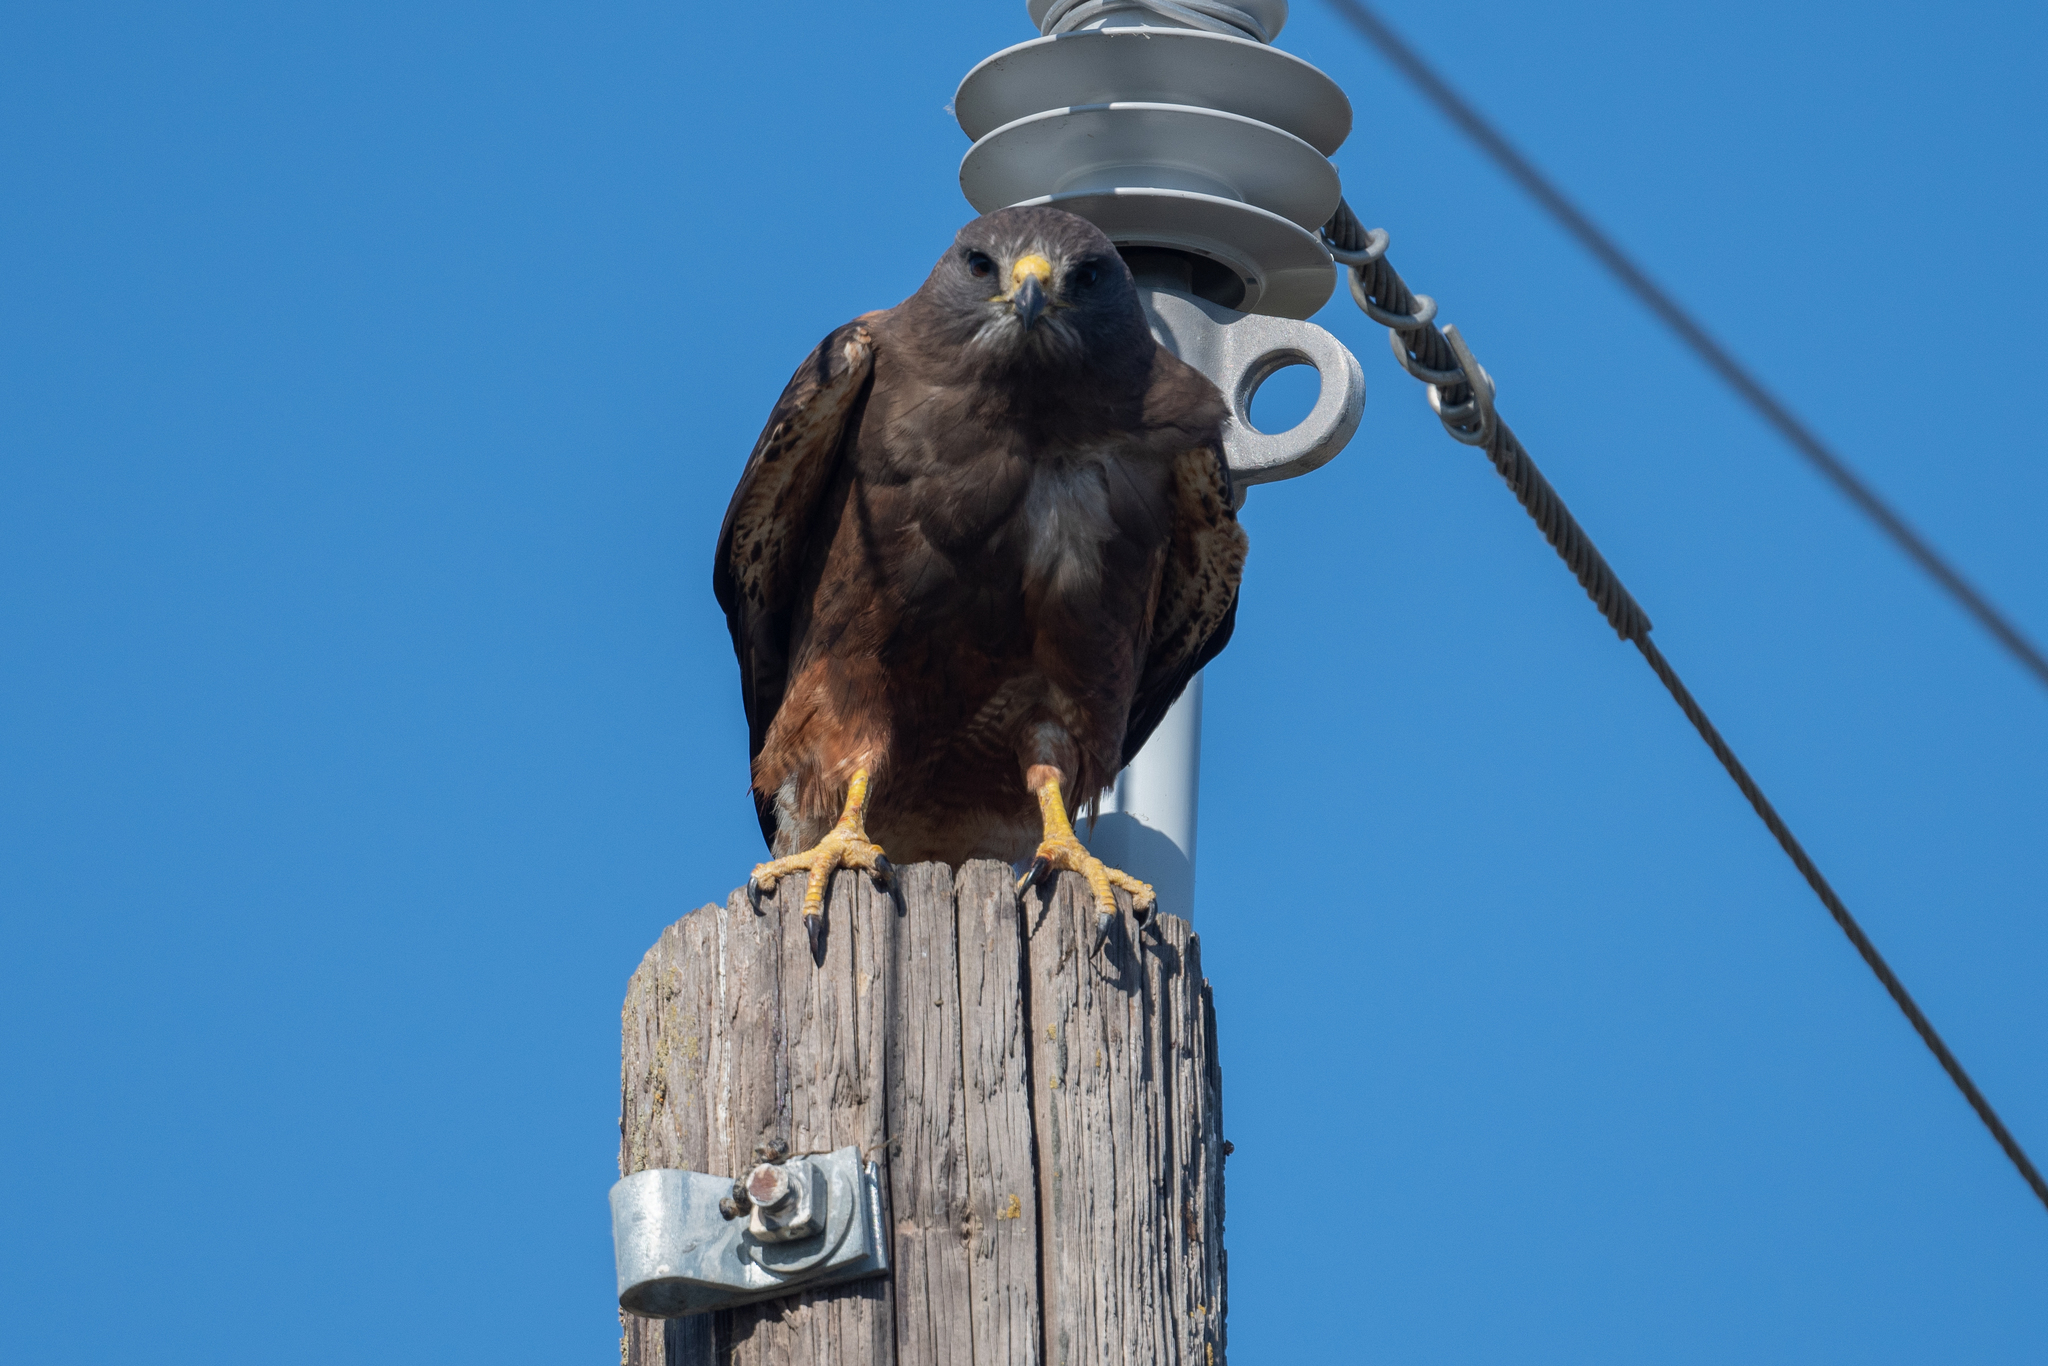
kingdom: Animalia
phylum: Chordata
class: Aves
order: Accipitriformes
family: Accipitridae
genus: Buteo
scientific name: Buteo swainsoni
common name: Swainson's hawk
